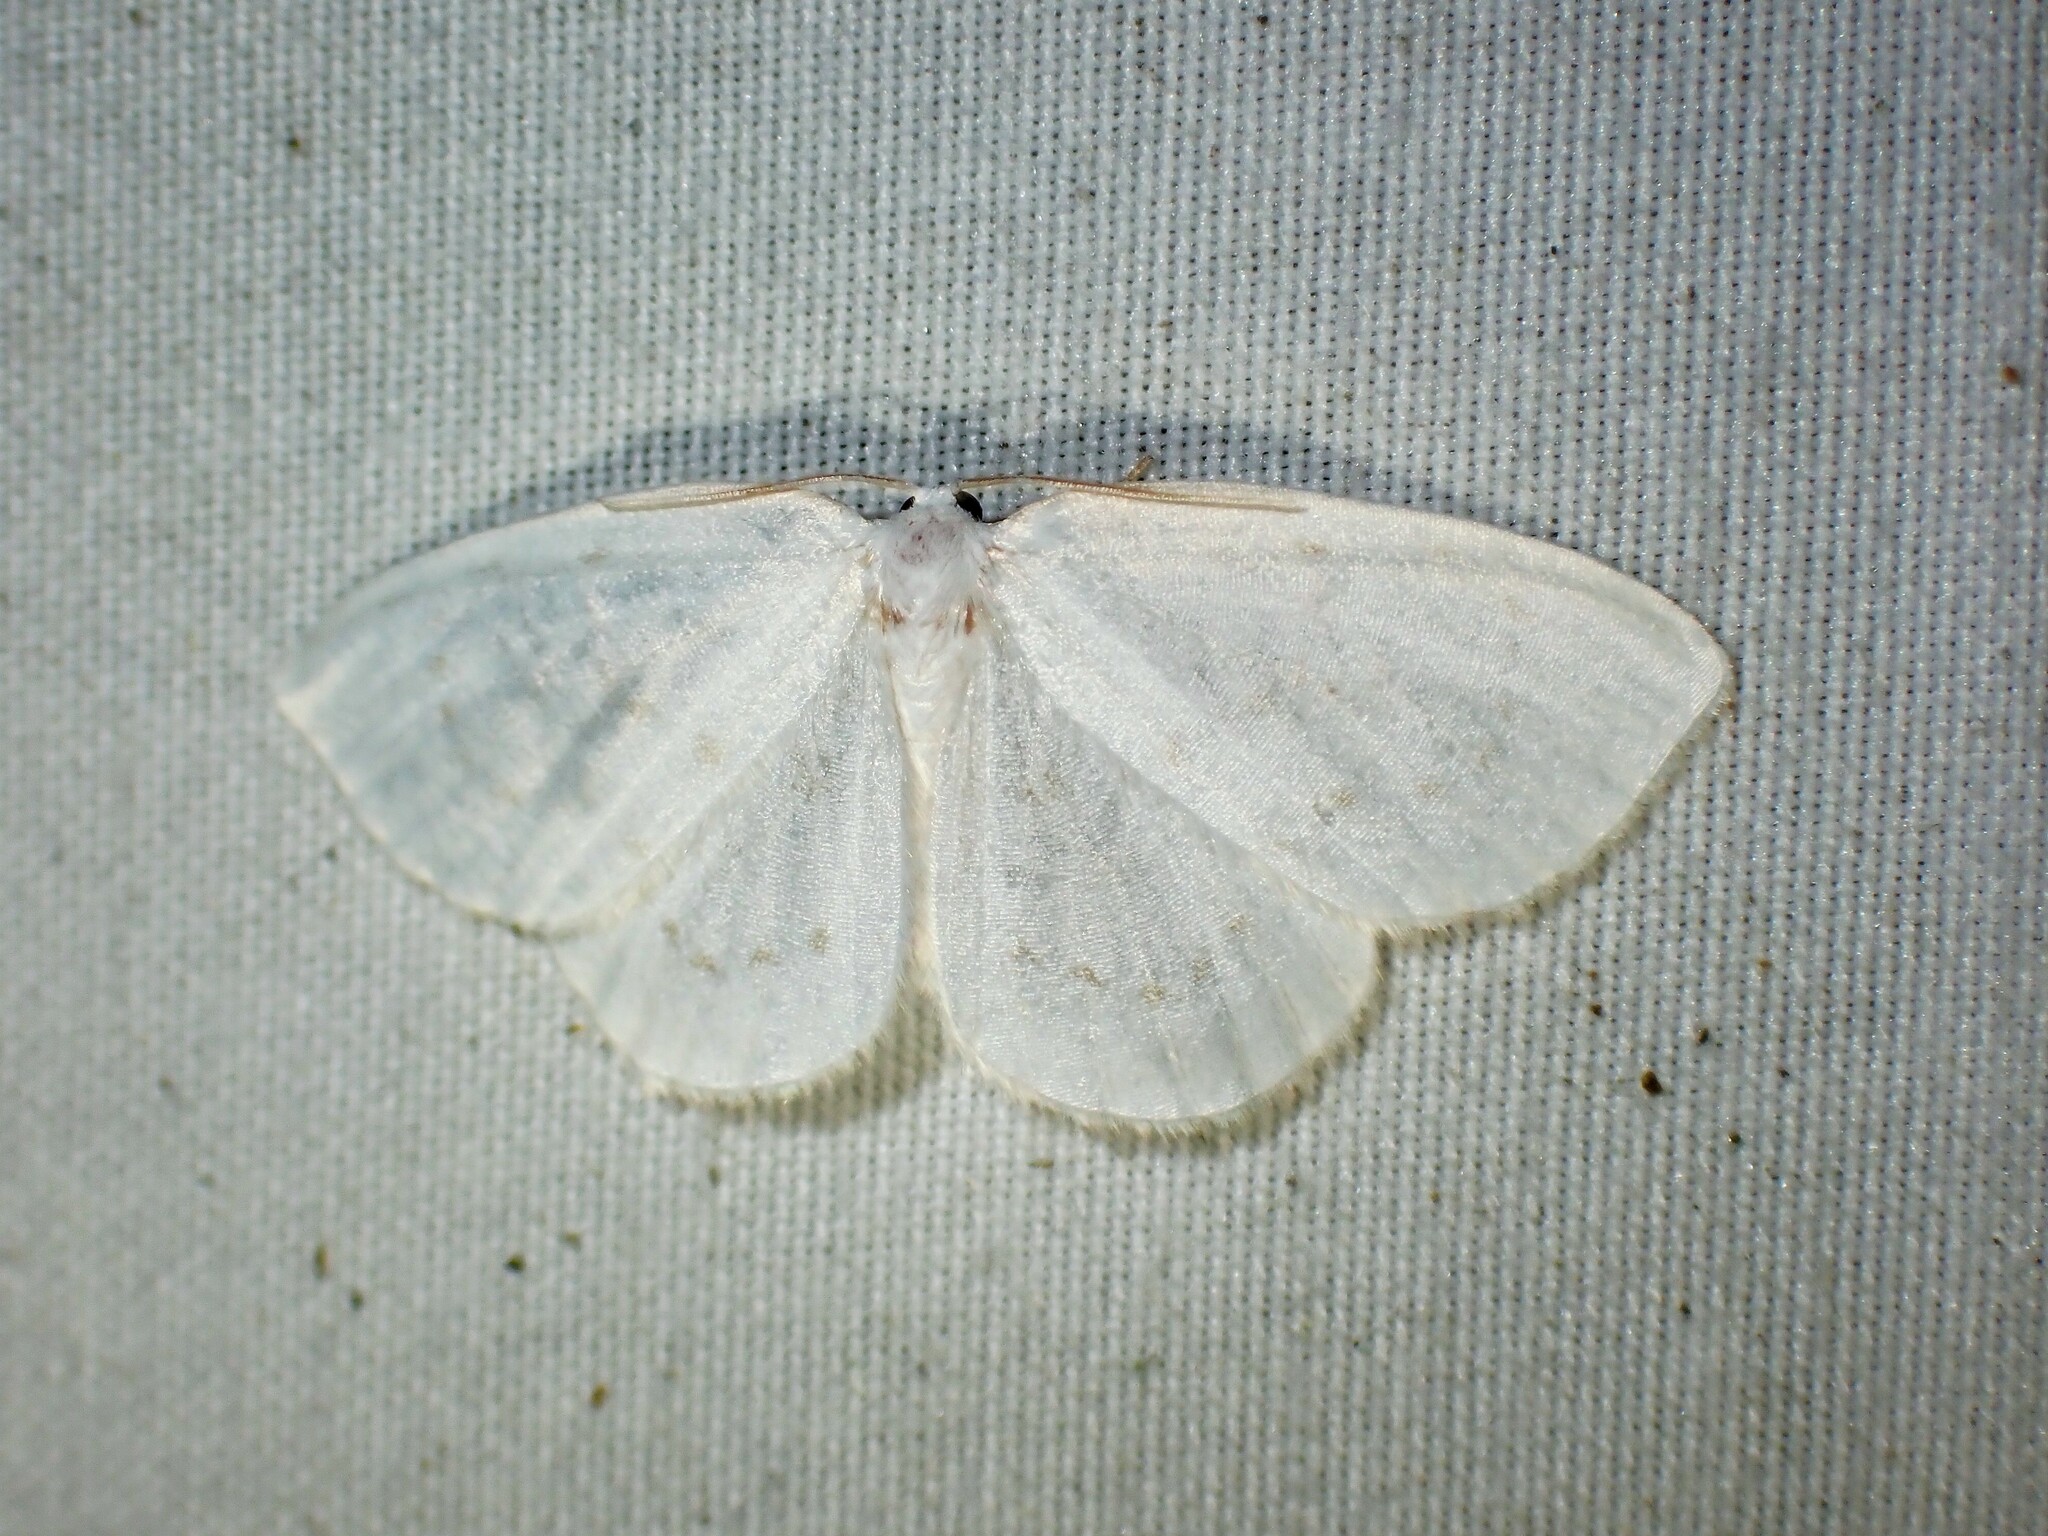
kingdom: Animalia
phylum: Arthropoda
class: Insecta
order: Lepidoptera
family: Drepanidae
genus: Eudeilinia
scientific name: Eudeilinia herminiata
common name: Northern eudeilinea moth
